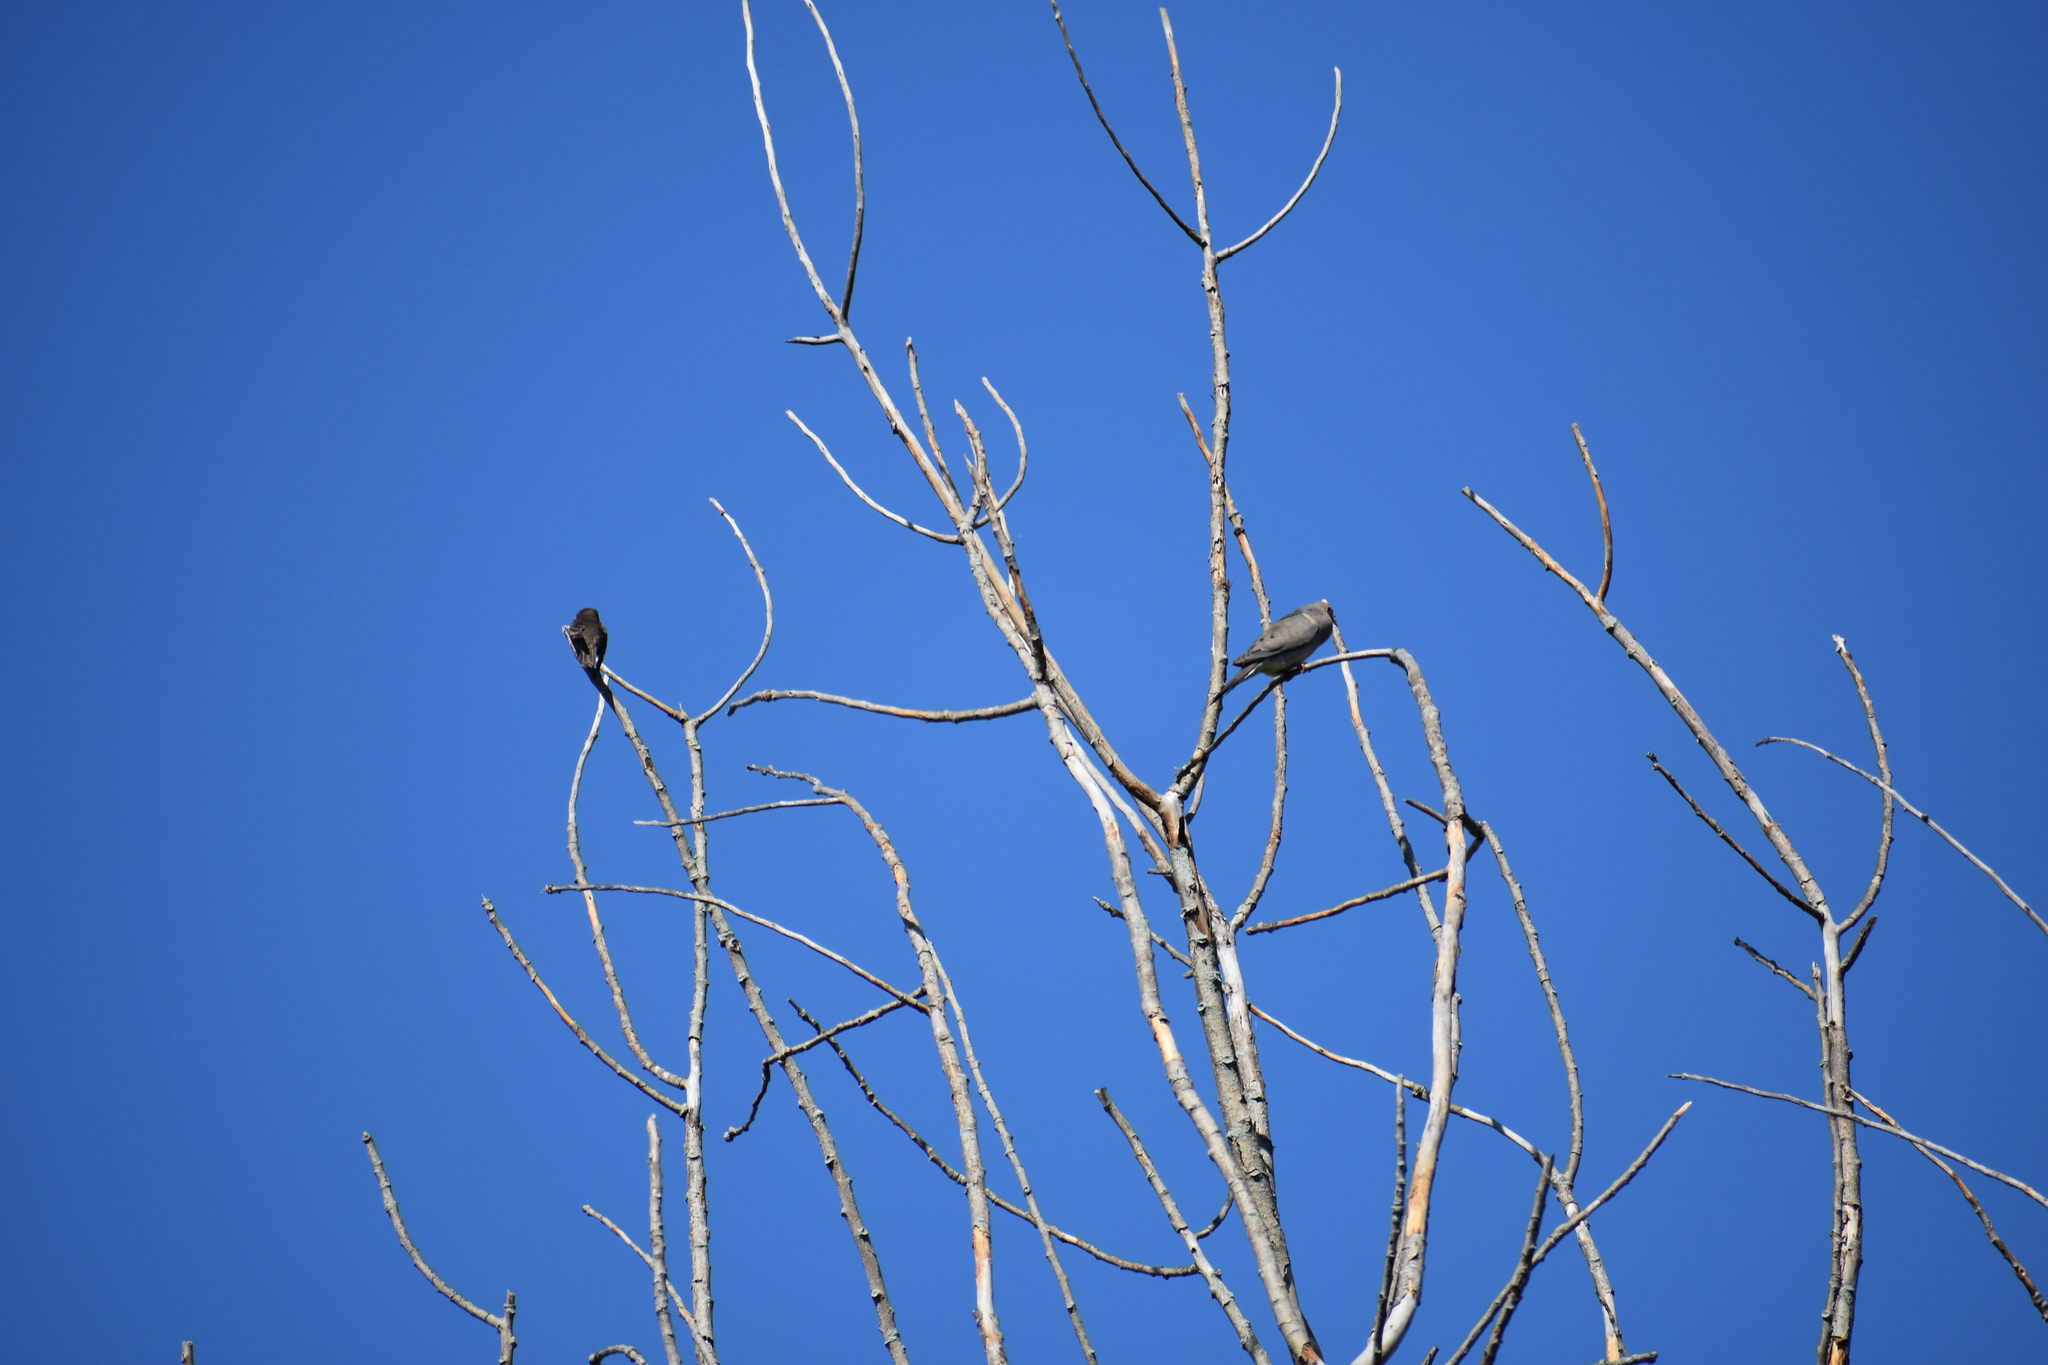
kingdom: Animalia
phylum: Chordata
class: Aves
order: Columbiformes
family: Columbidae
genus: Zenaida
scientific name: Zenaida macroura
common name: Mourning dove
